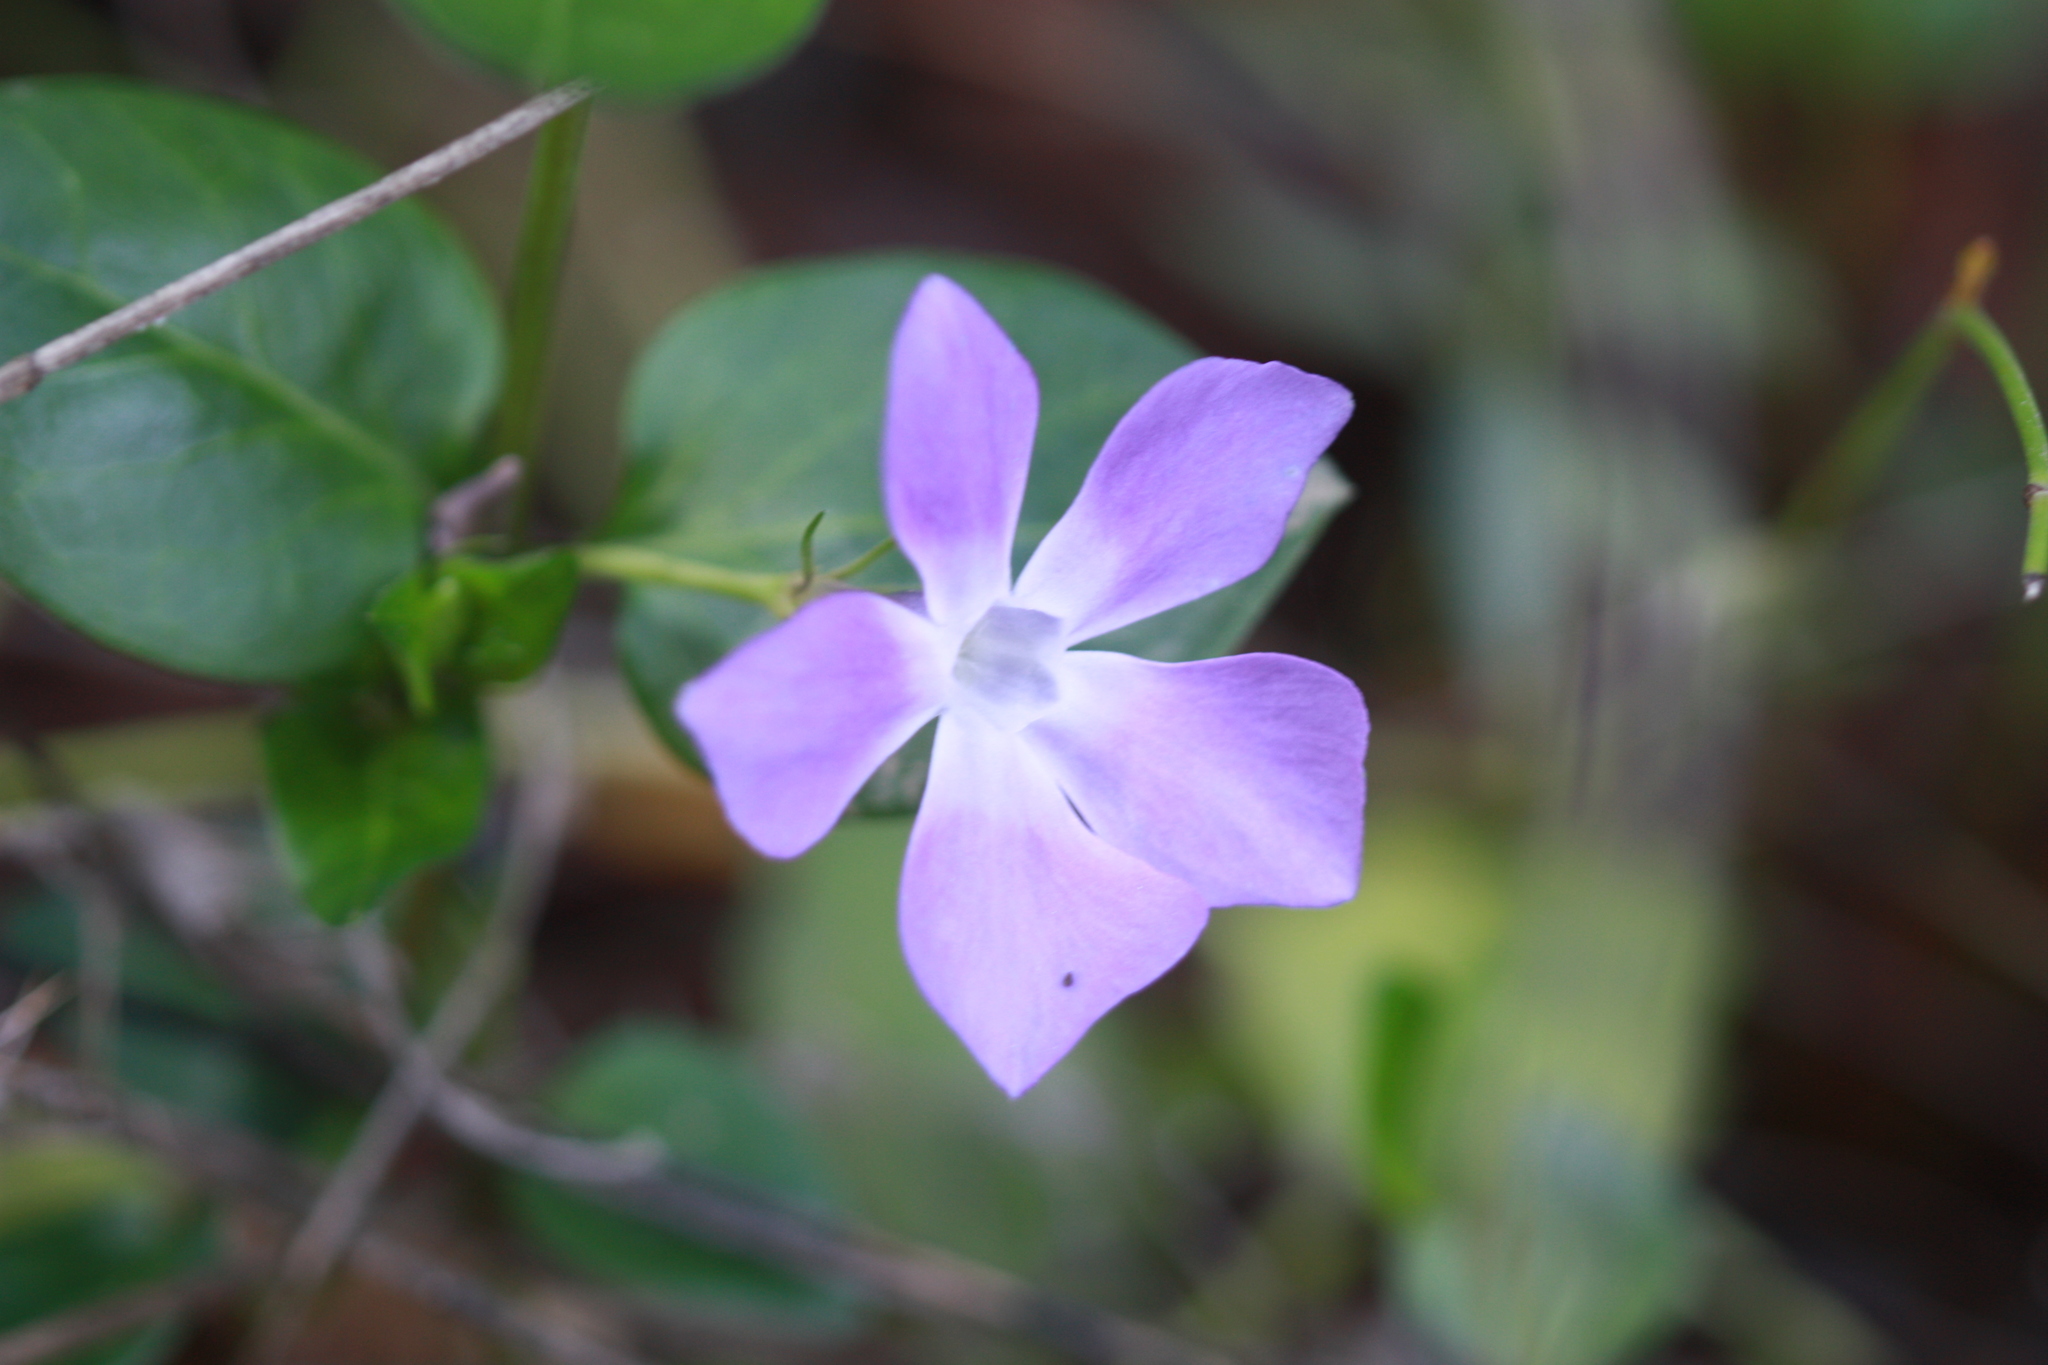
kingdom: Plantae
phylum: Tracheophyta
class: Magnoliopsida
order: Gentianales
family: Apocynaceae
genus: Vinca
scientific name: Vinca major
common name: Greater periwinkle
